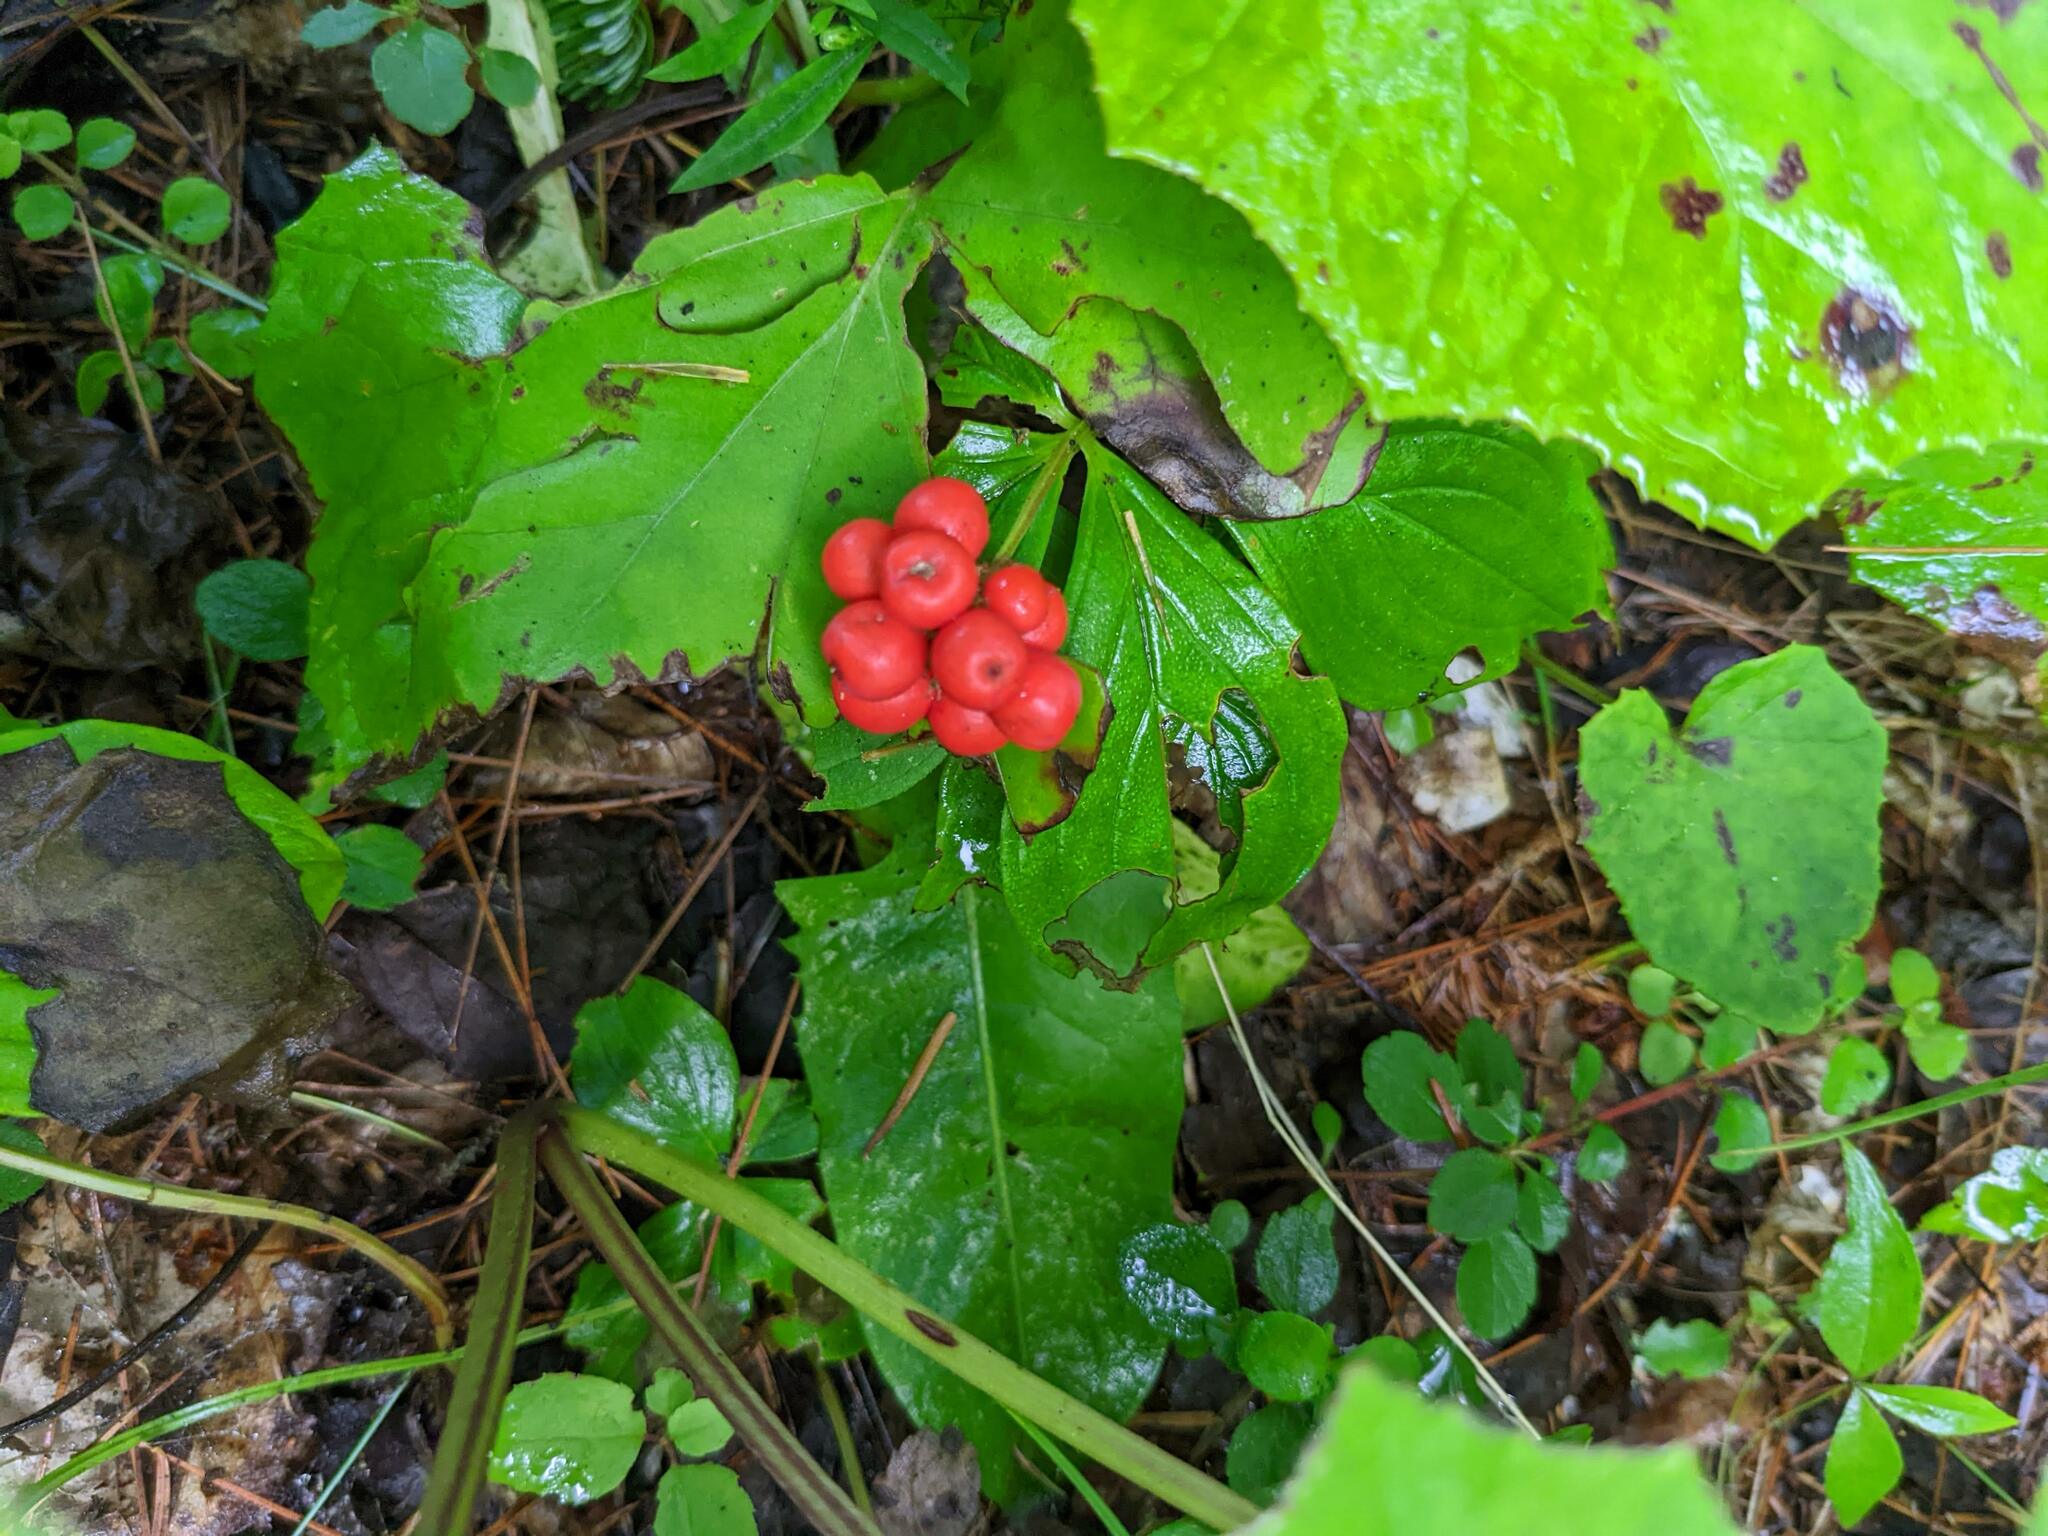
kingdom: Plantae
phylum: Tracheophyta
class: Magnoliopsida
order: Cornales
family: Cornaceae
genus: Cornus
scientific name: Cornus canadensis
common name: Creeping dogwood
